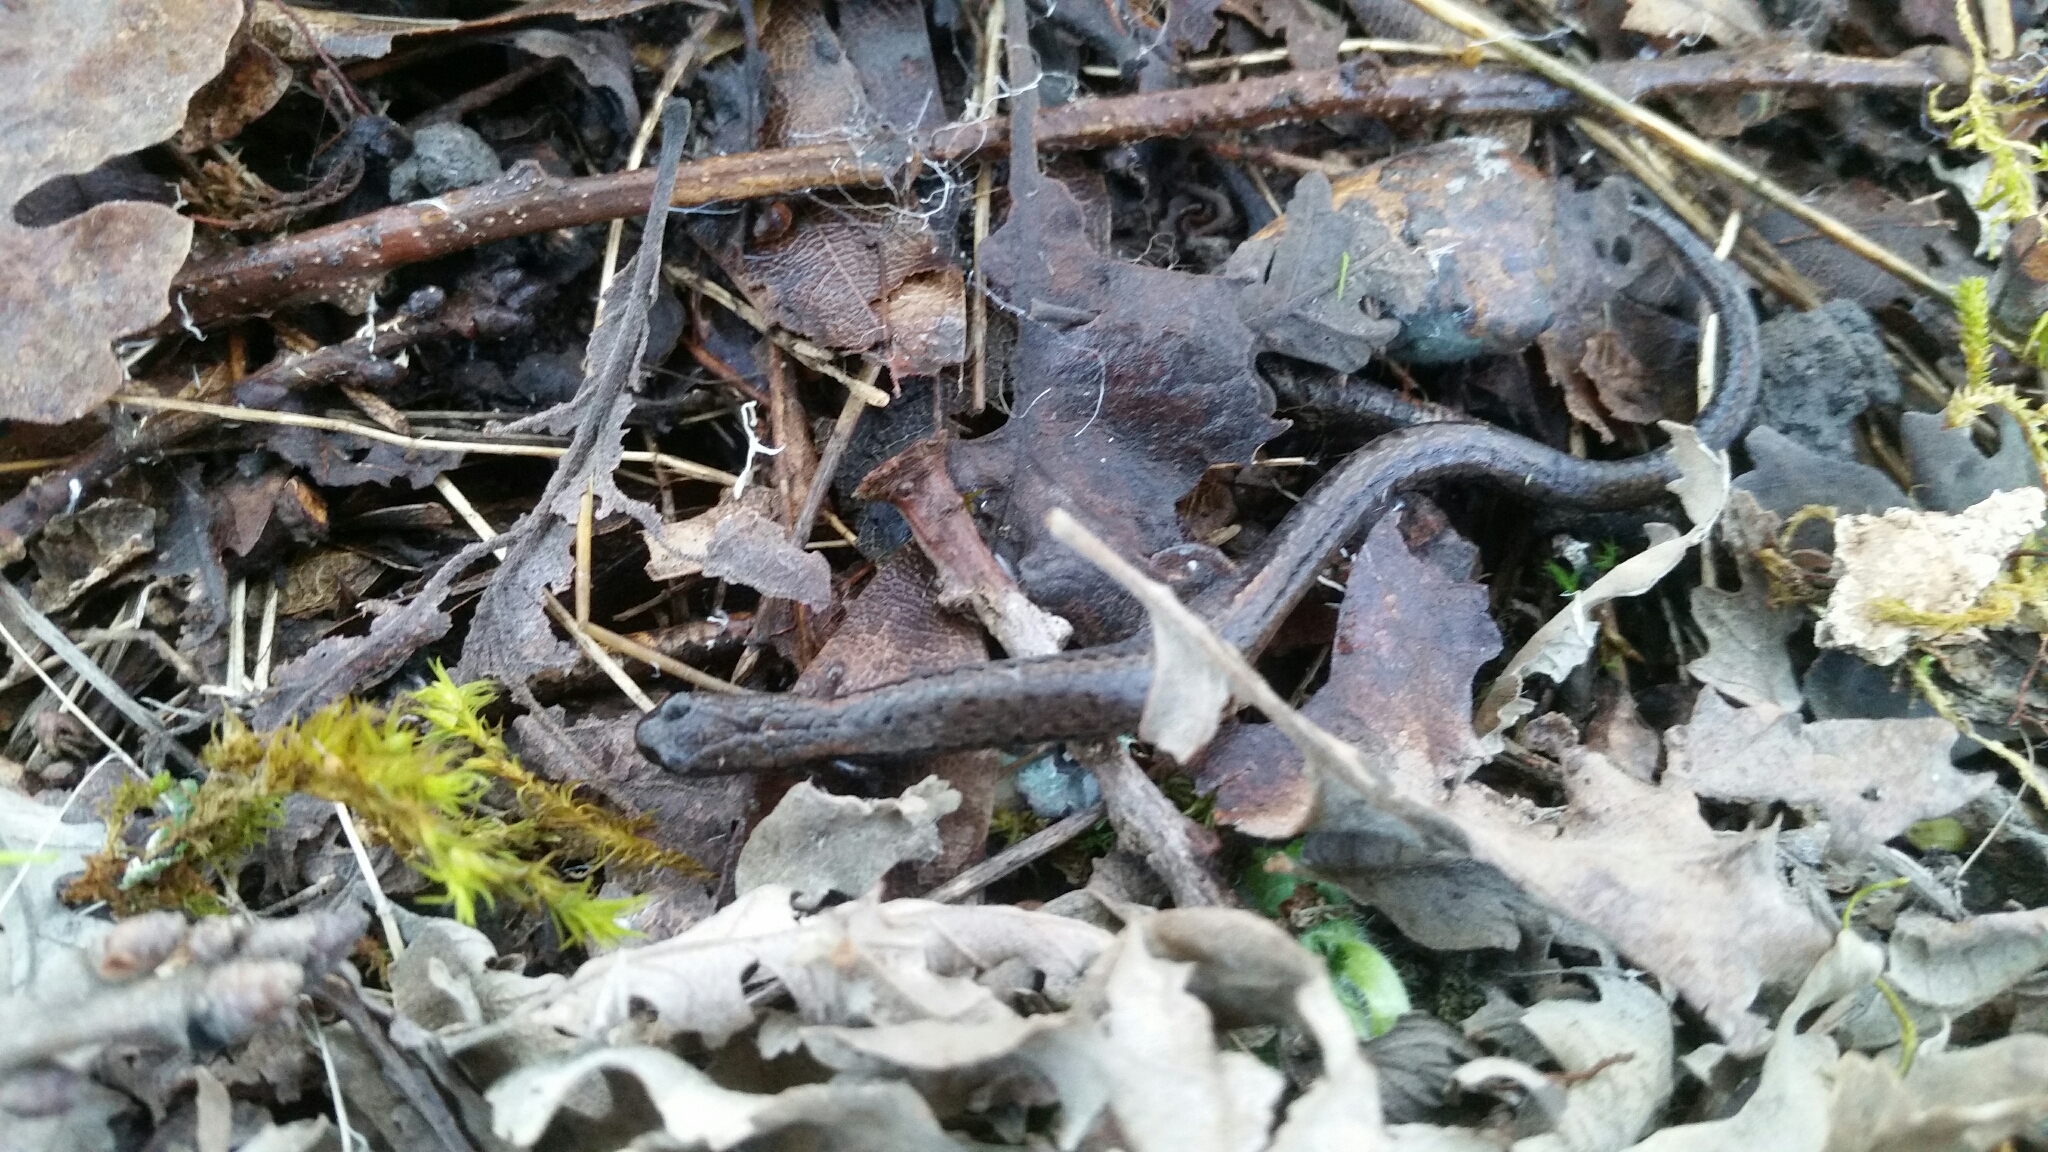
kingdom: Animalia
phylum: Chordata
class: Amphibia
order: Caudata
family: Plethodontidae
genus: Batrachoseps
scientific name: Batrachoseps attenuatus
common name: California slender salamander
